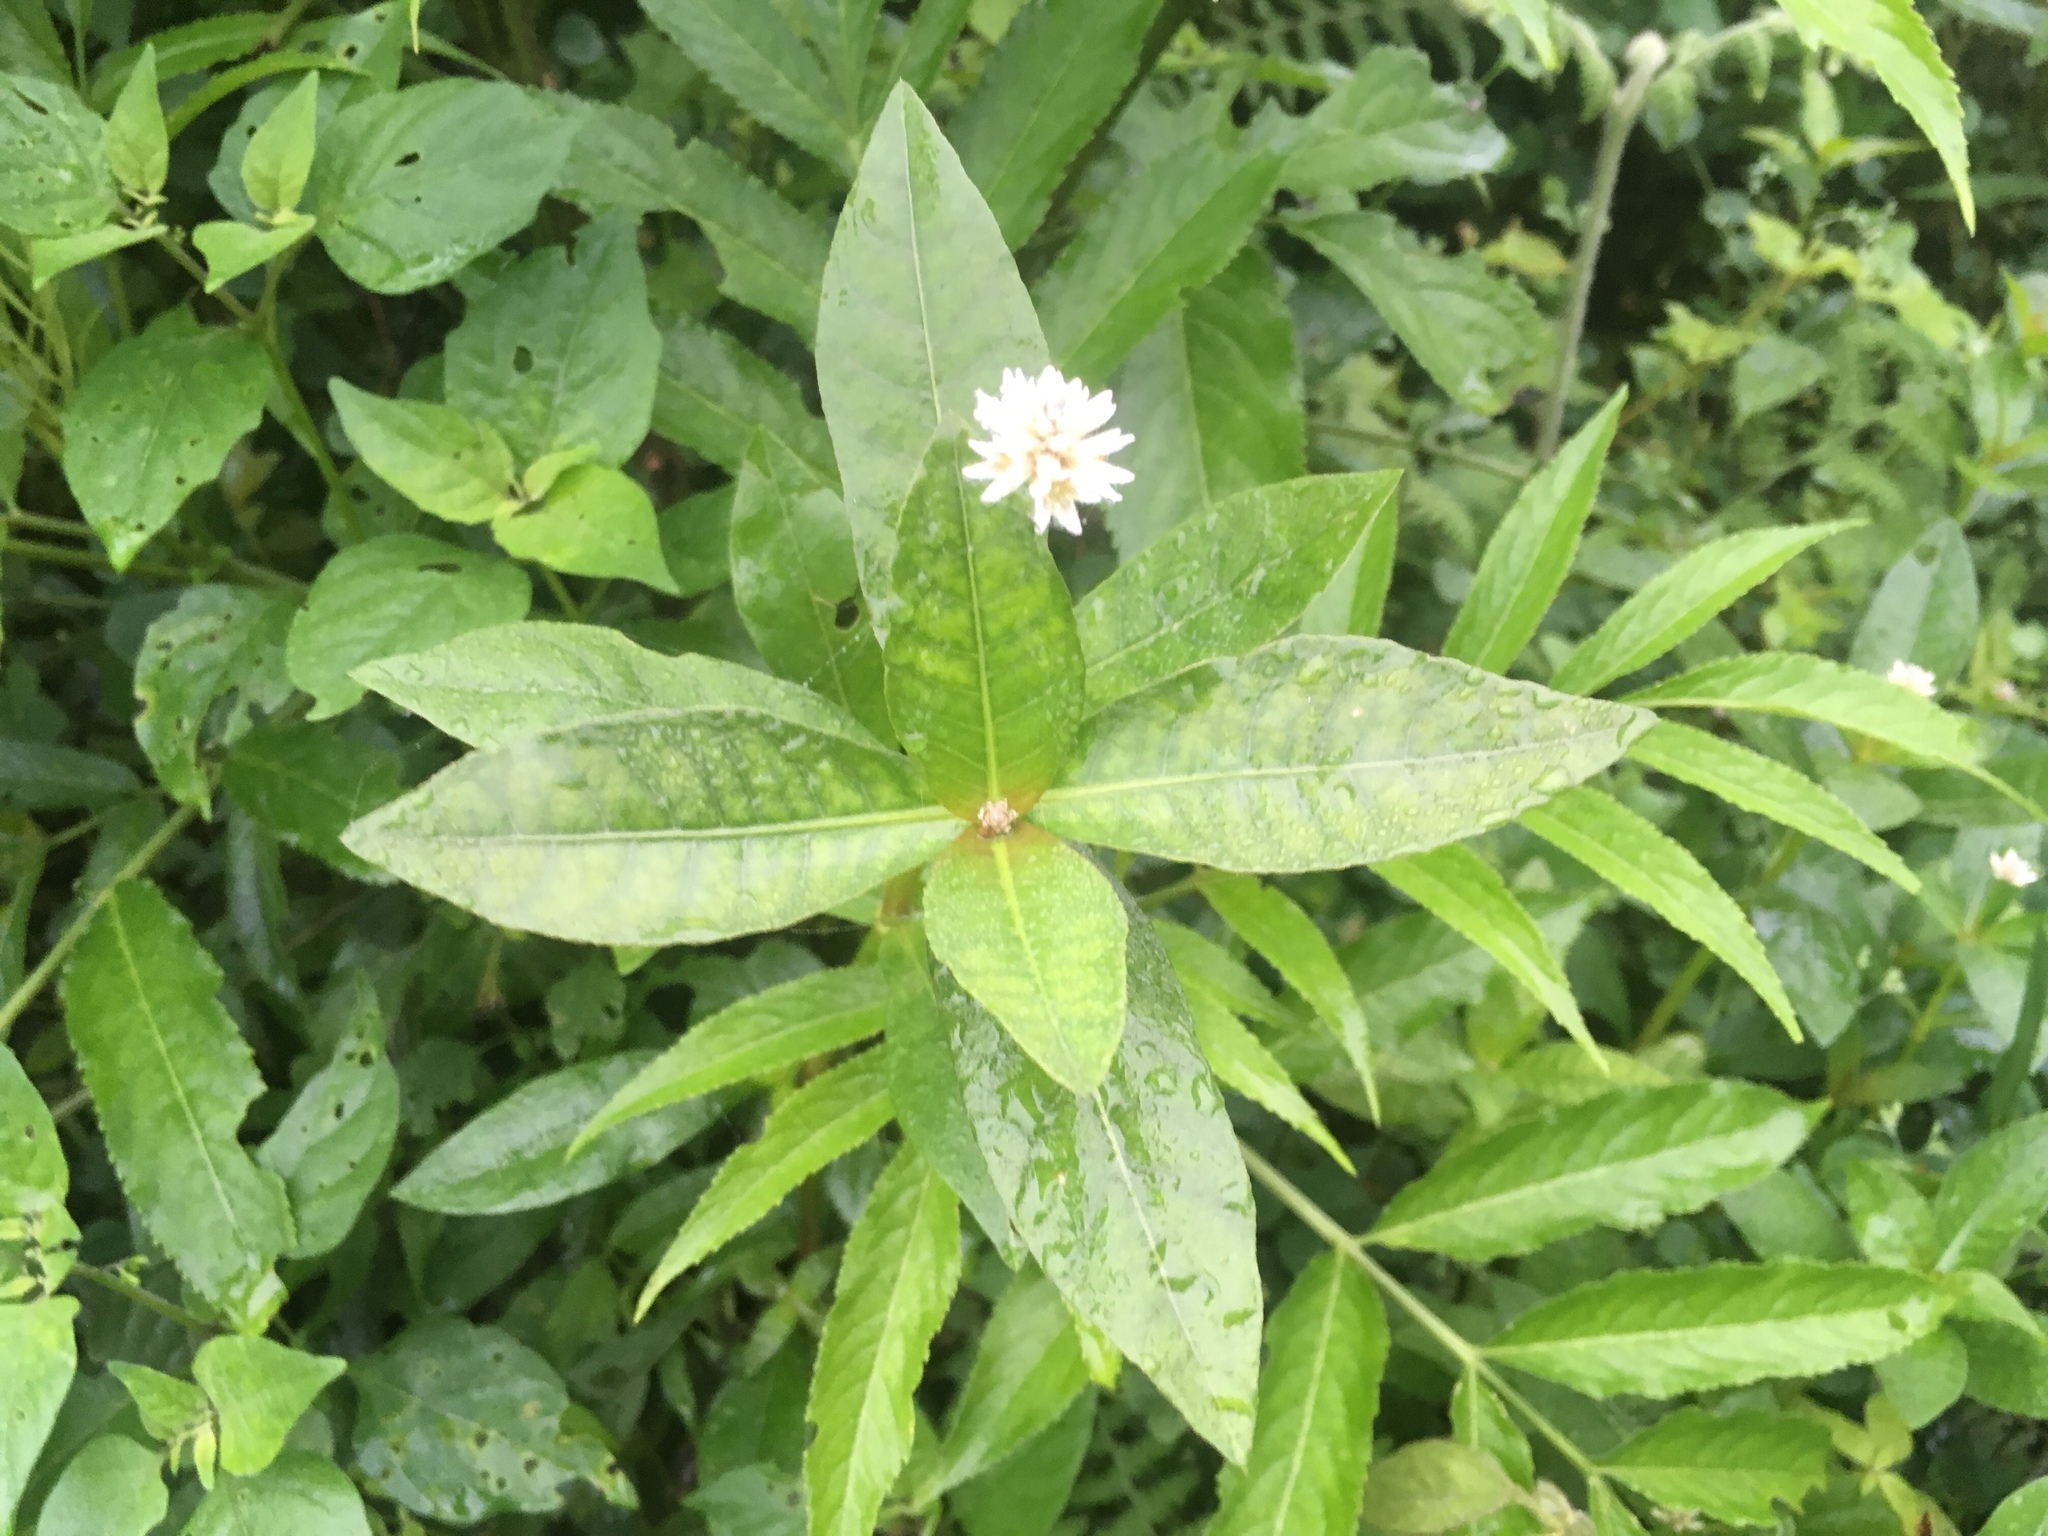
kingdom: Plantae
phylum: Tracheophyta
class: Magnoliopsida
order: Caryophyllales
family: Amaranthaceae
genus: Alternanthera
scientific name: Alternanthera philoxeroides
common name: Alligatorweed
